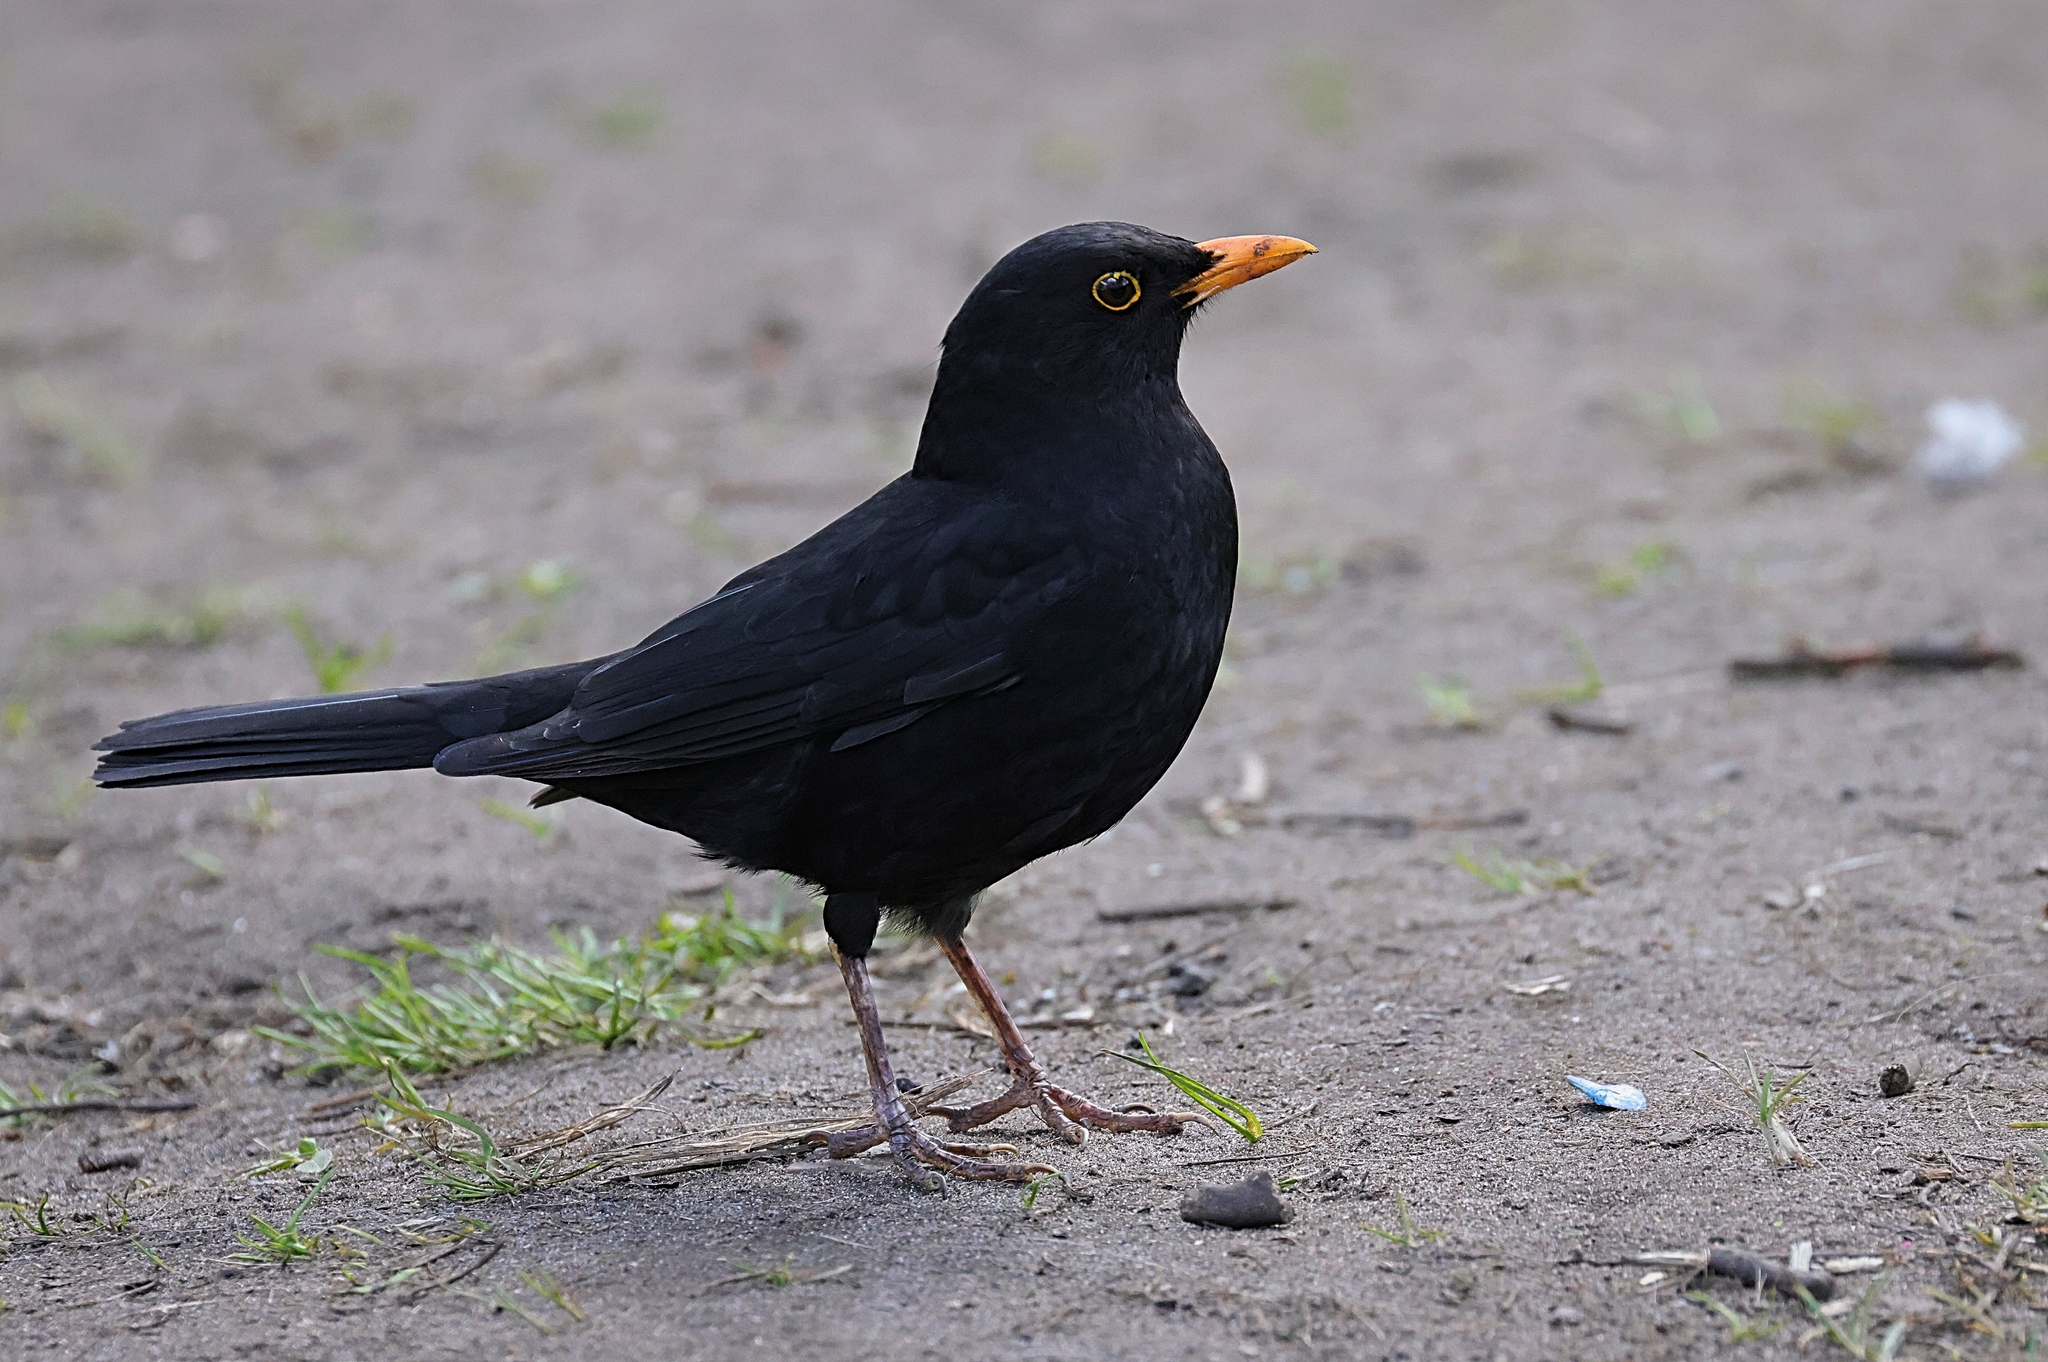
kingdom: Animalia
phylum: Chordata
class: Aves
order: Passeriformes
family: Turdidae
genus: Turdus
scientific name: Turdus merula
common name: Common blackbird
